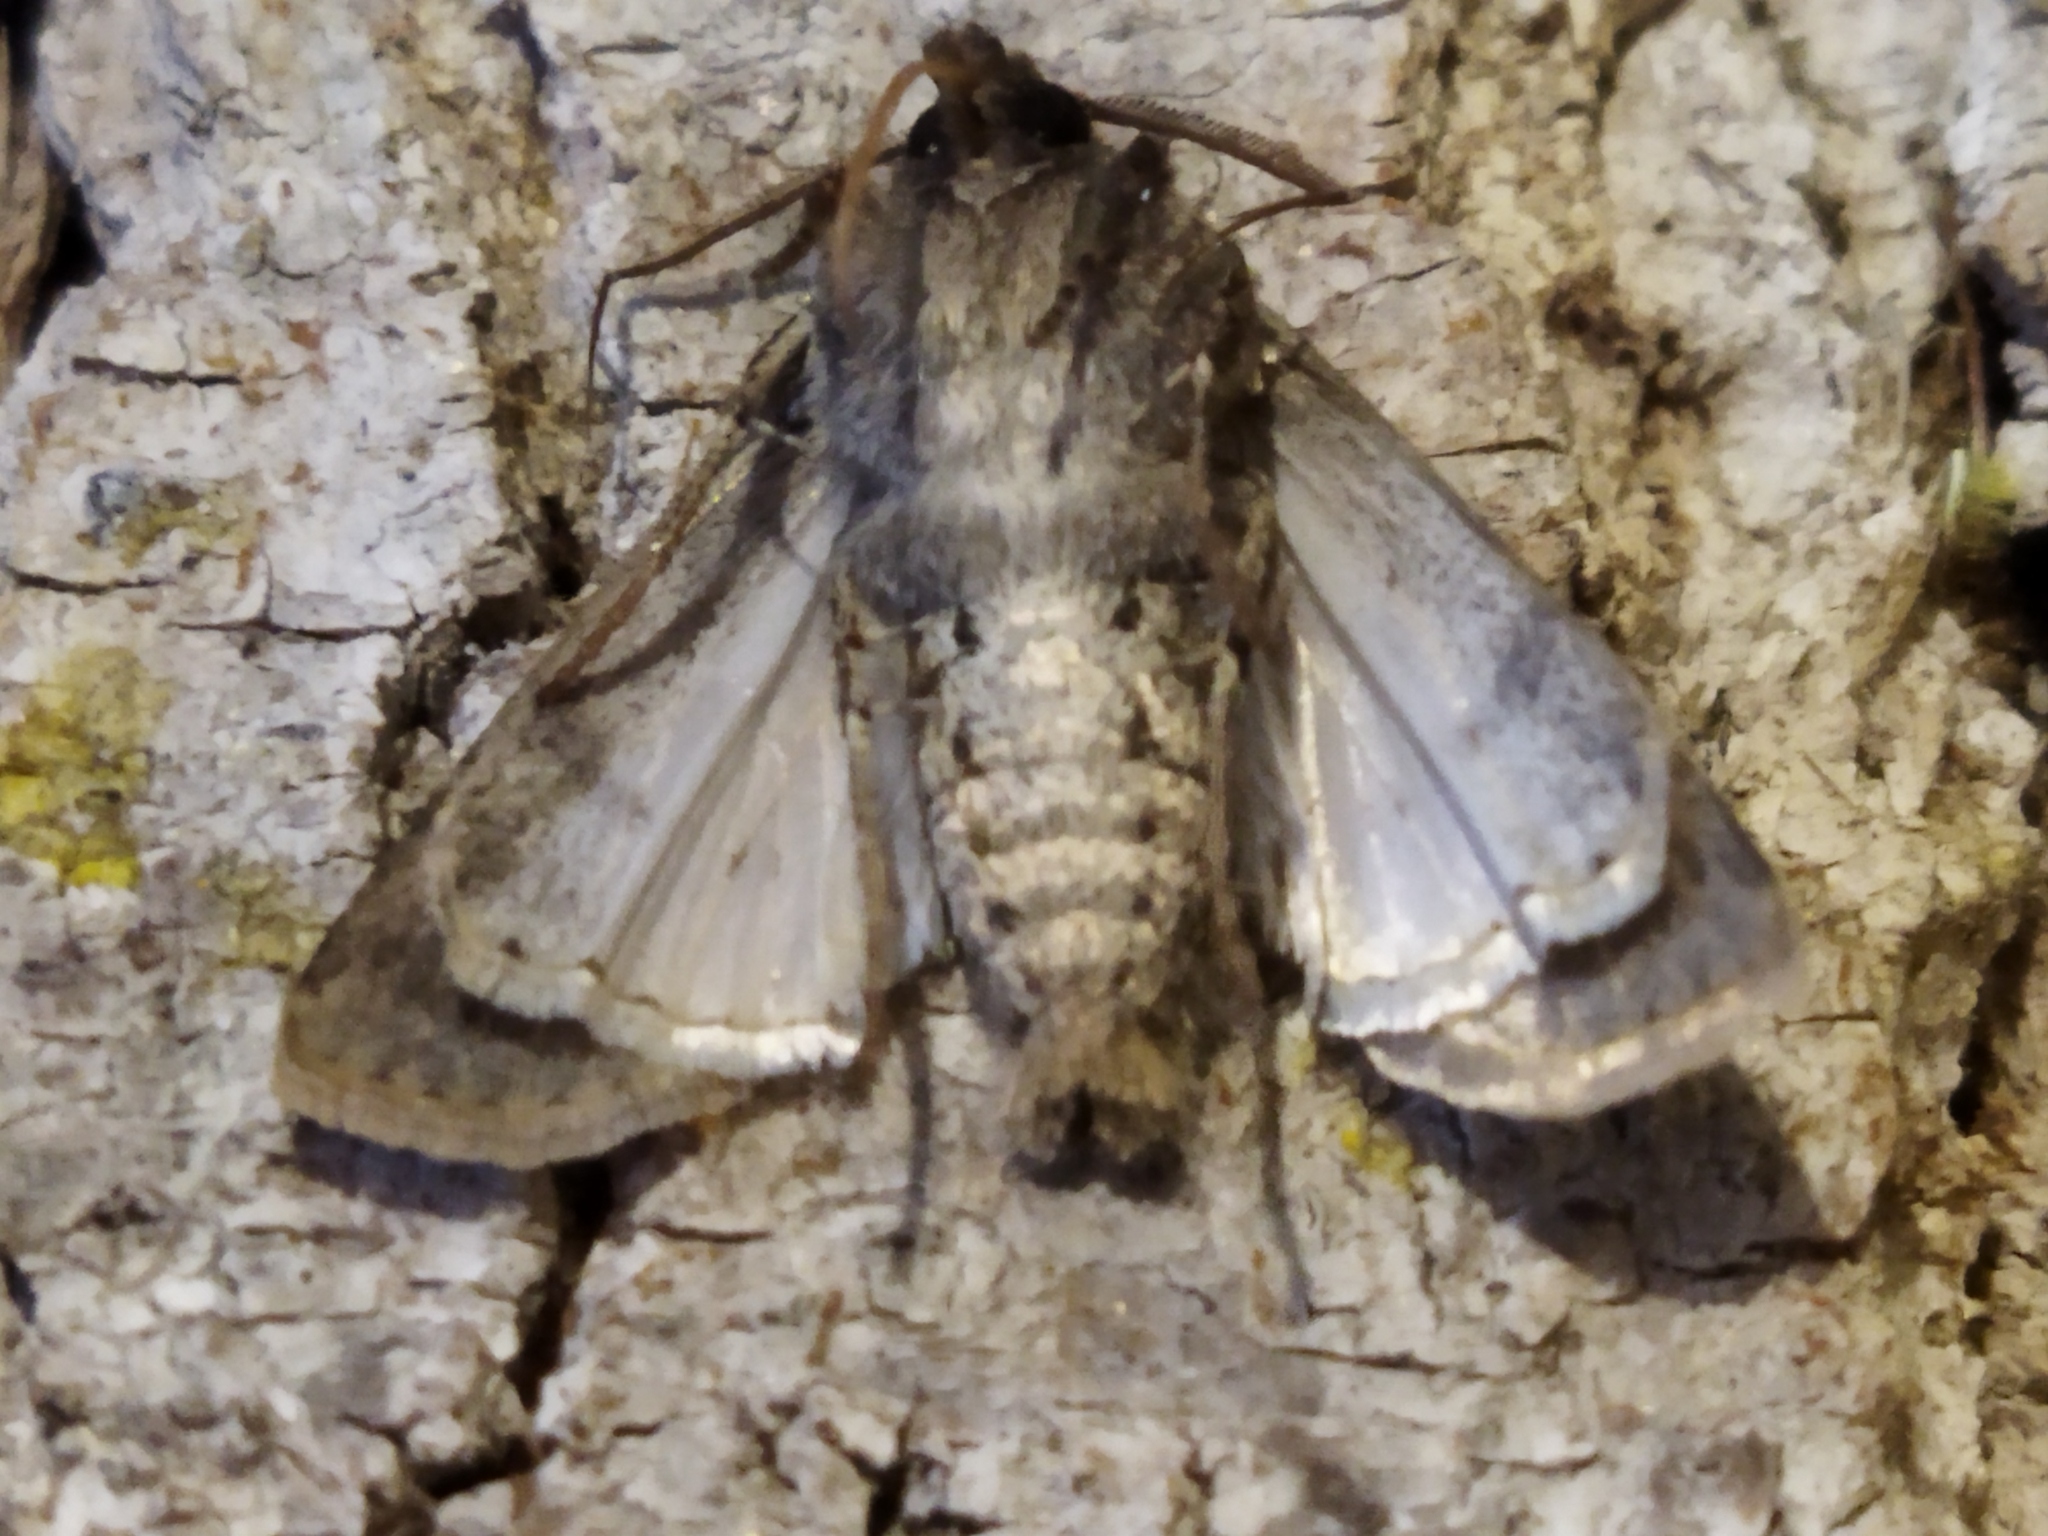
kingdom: Animalia
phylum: Arthropoda
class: Insecta
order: Lepidoptera
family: Noctuidae
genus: Agrotis
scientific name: Agrotis segetum
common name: Turnip moth
